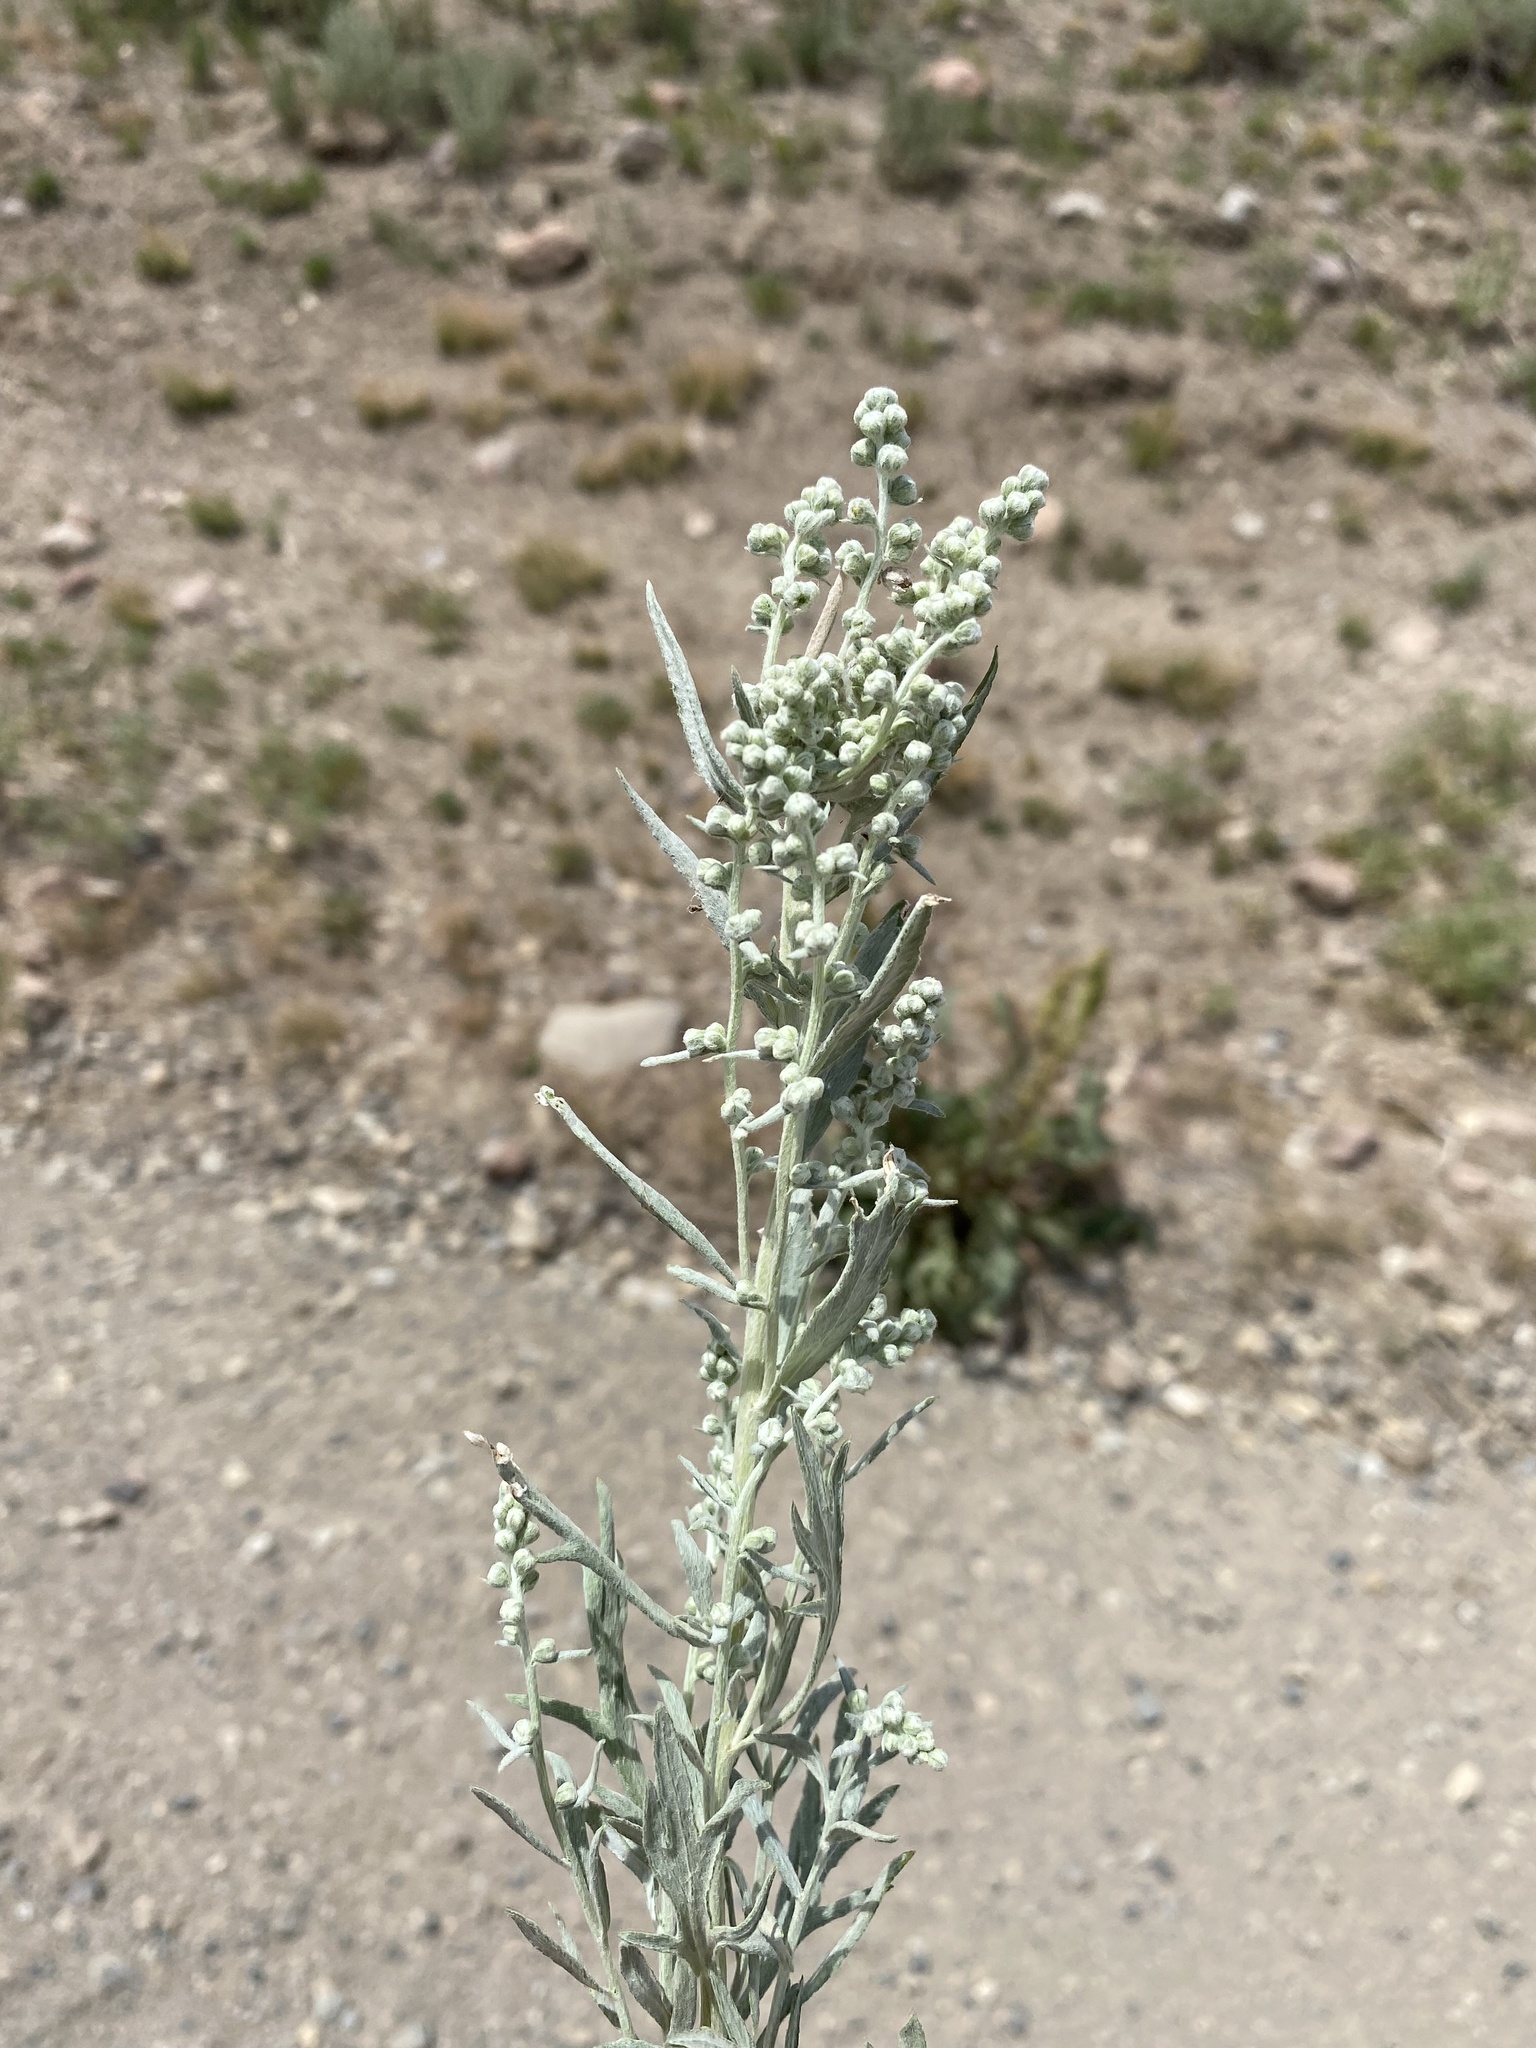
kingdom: Plantae
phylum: Tracheophyta
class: Magnoliopsida
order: Asterales
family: Asteraceae
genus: Artemisia
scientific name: Artemisia ludoviciana
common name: Western mugwort
